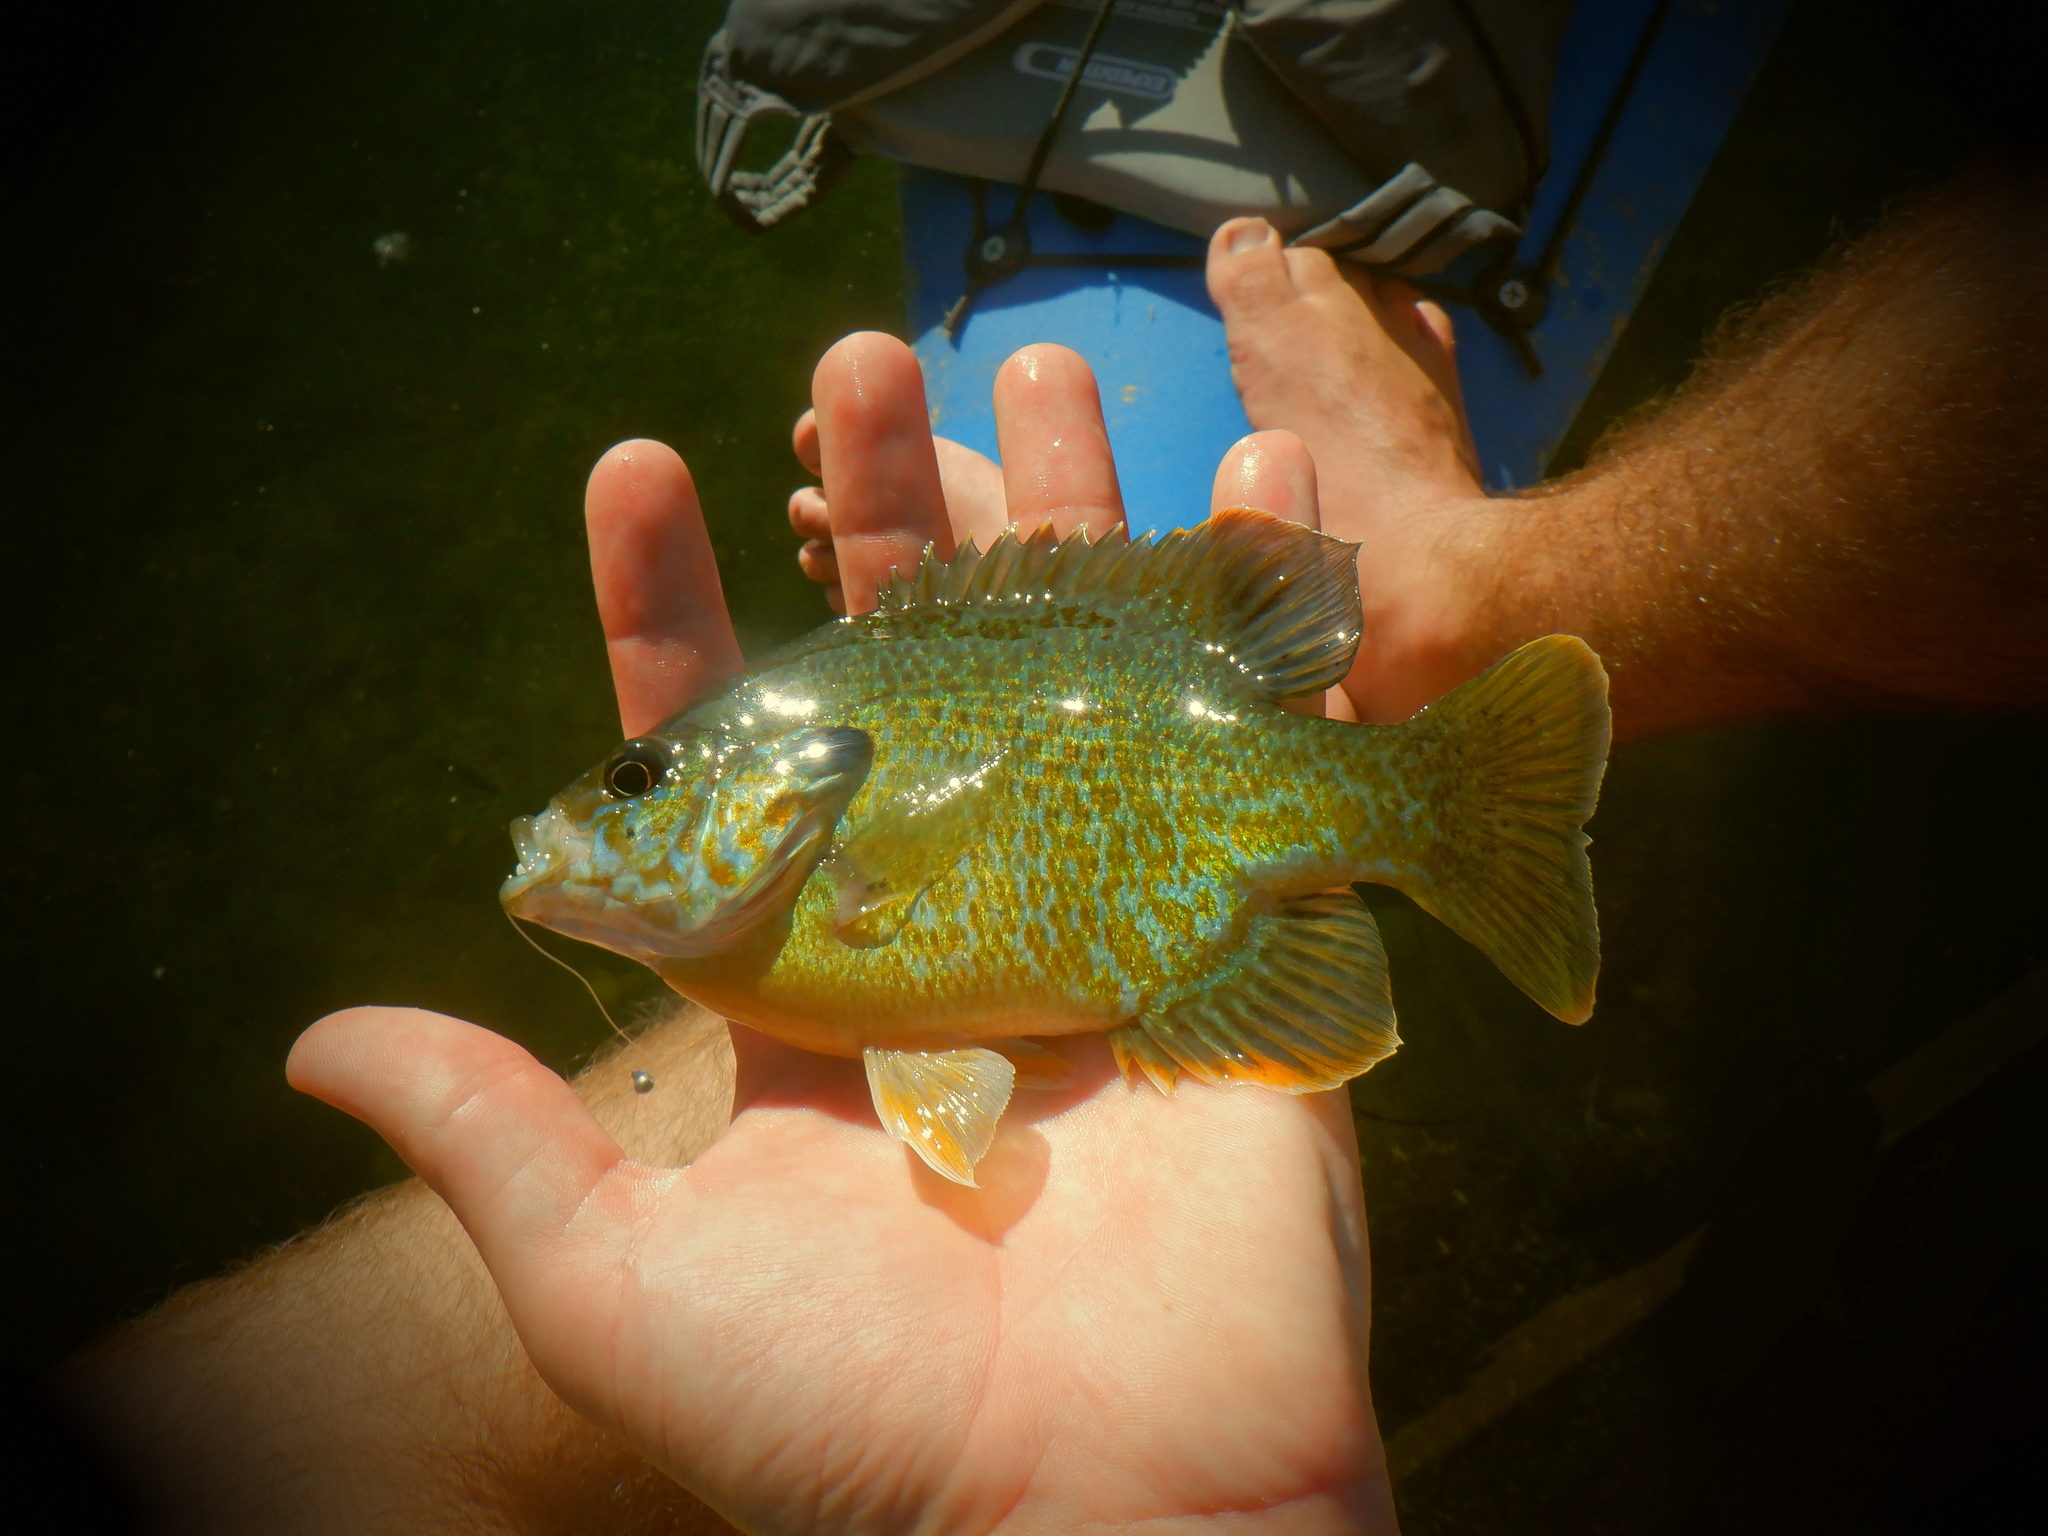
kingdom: Animalia
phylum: Chordata
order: Perciformes
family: Centrarchidae
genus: Lepomis
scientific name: Lepomis
